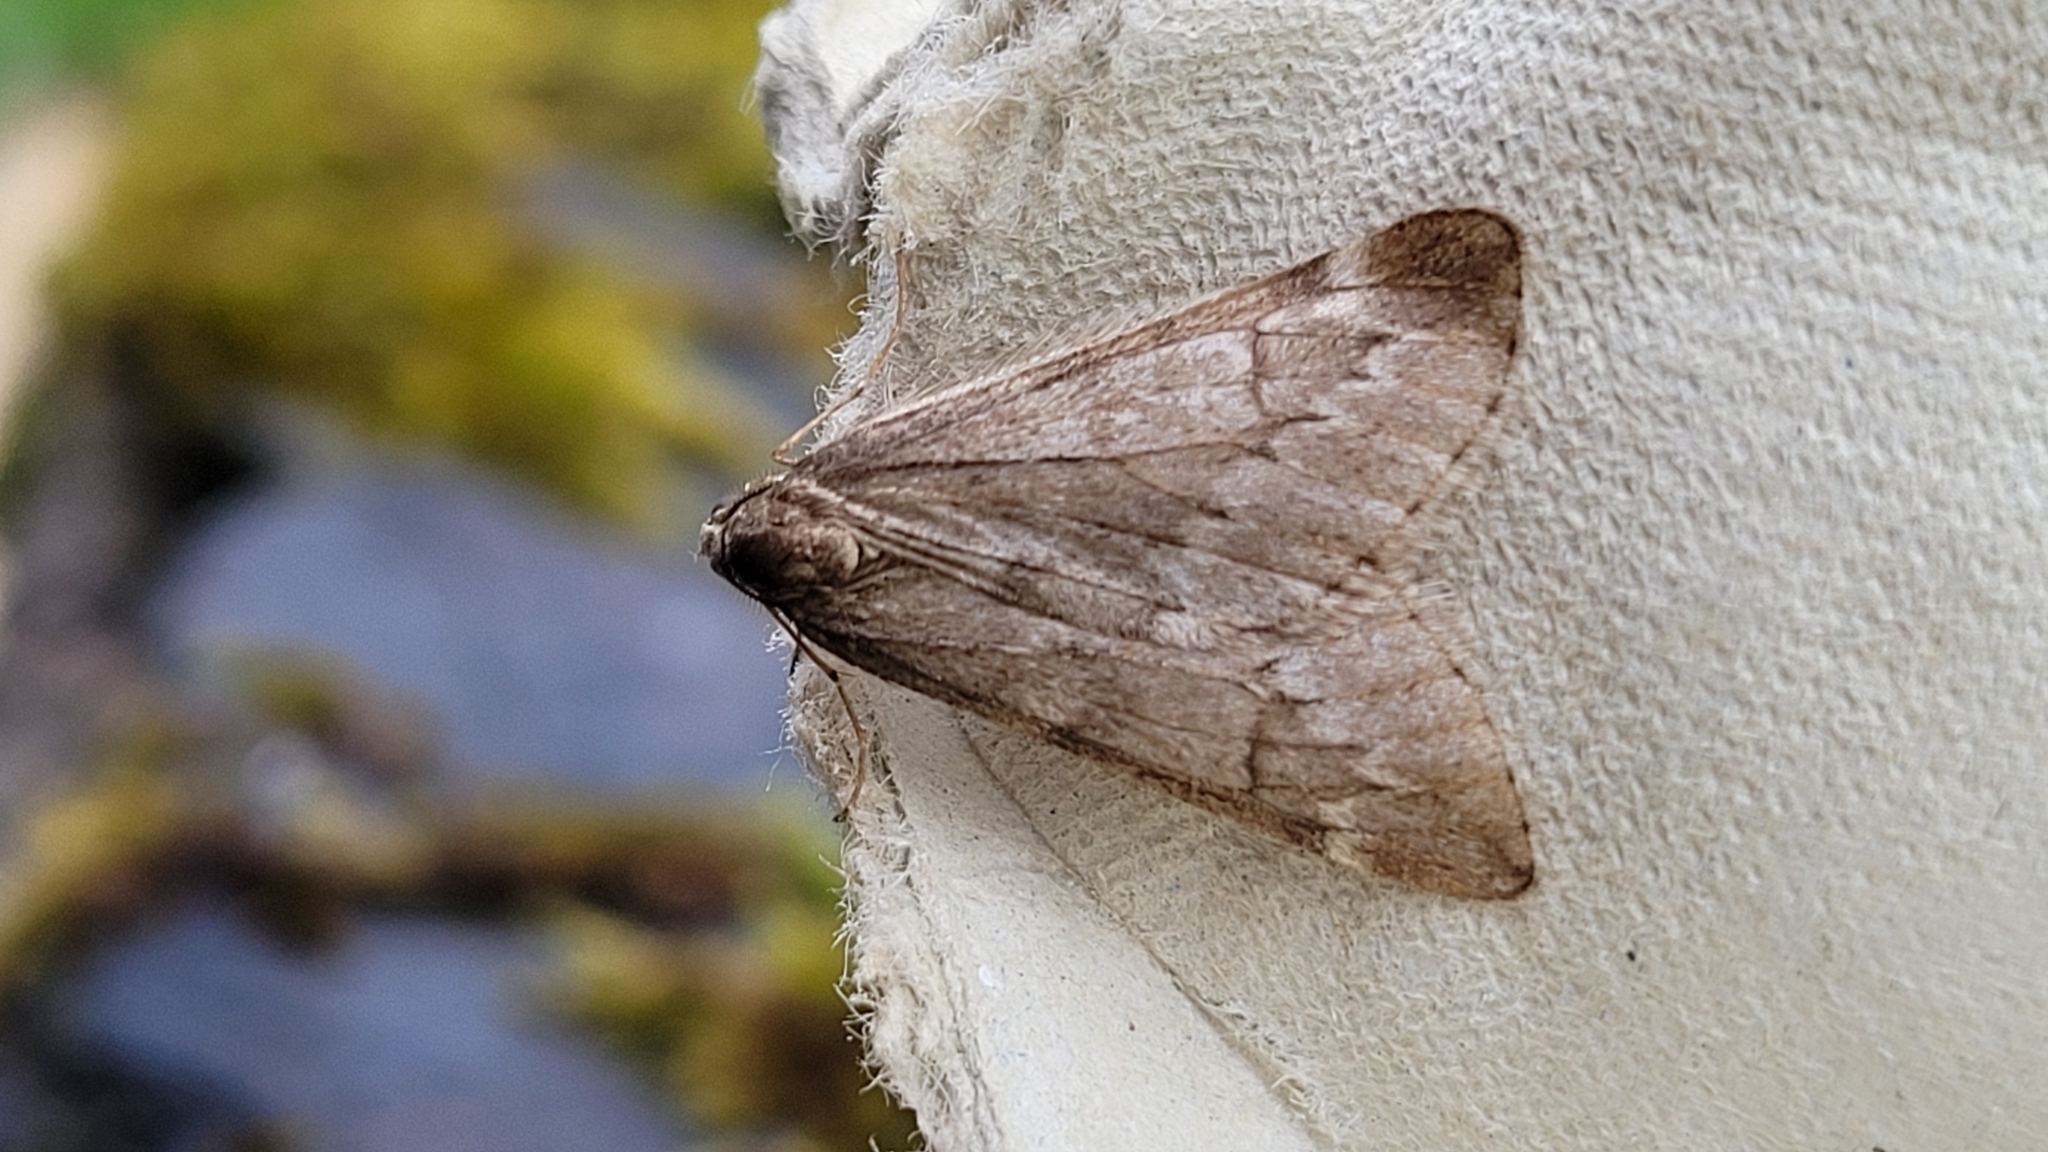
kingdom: Animalia
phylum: Arthropoda
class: Insecta
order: Lepidoptera
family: Geometridae
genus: Alsophila
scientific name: Alsophila aescularia
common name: March moth
